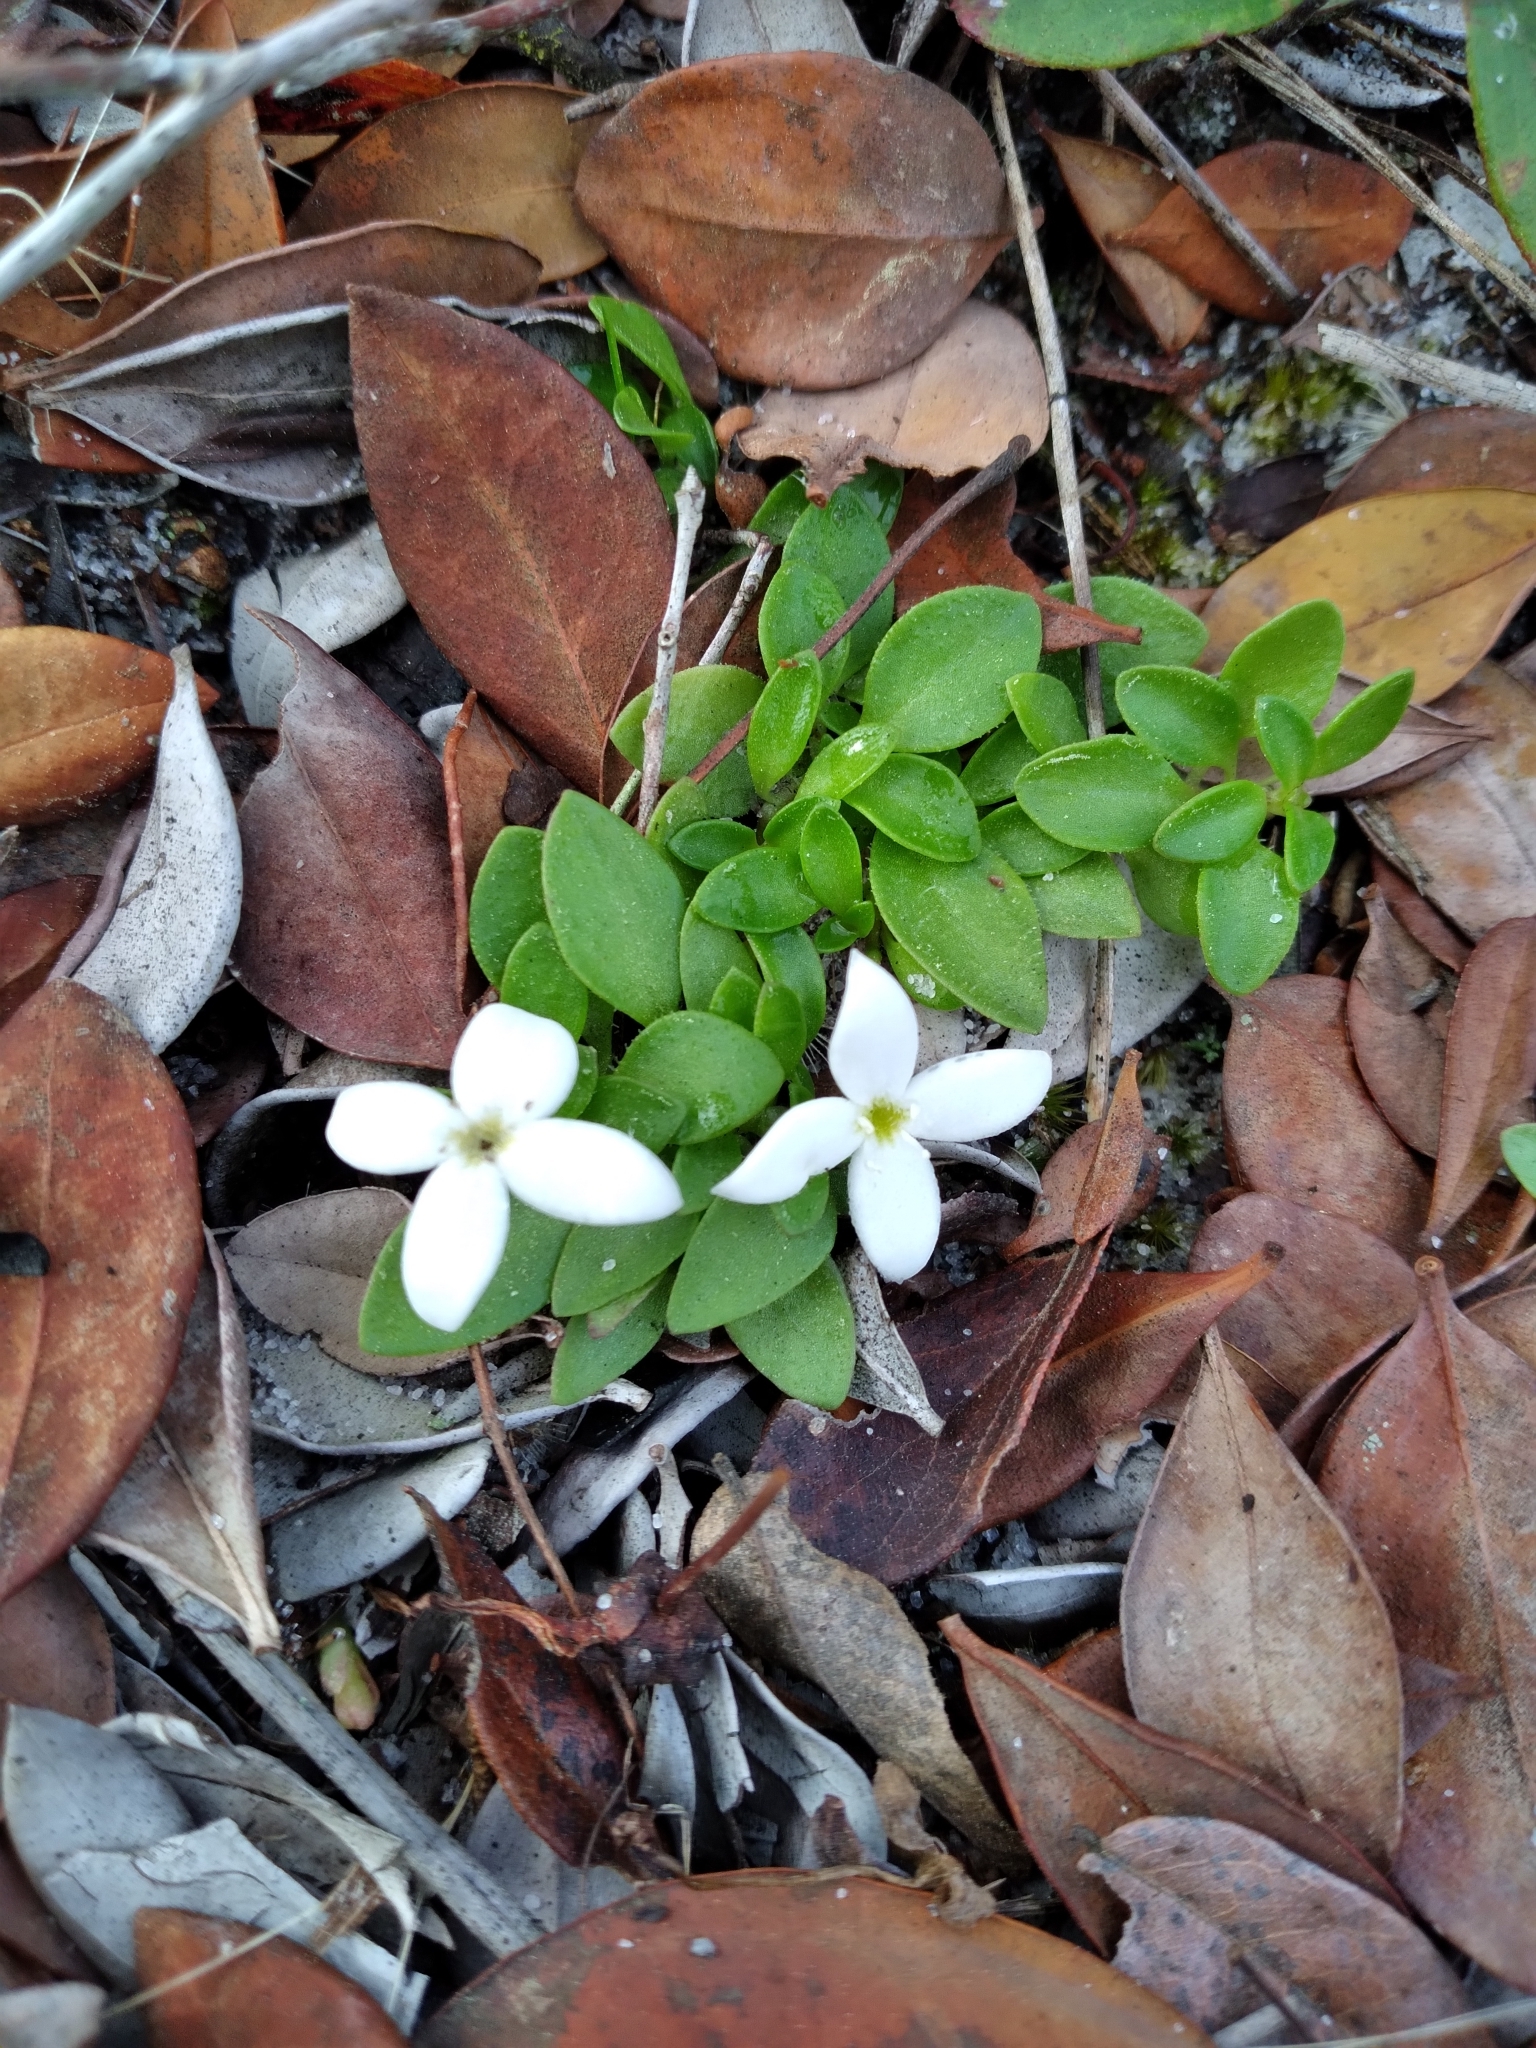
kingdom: Plantae
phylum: Tracheophyta
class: Magnoliopsida
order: Gentianales
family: Rubiaceae
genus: Houstonia
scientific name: Houstonia procumbens
